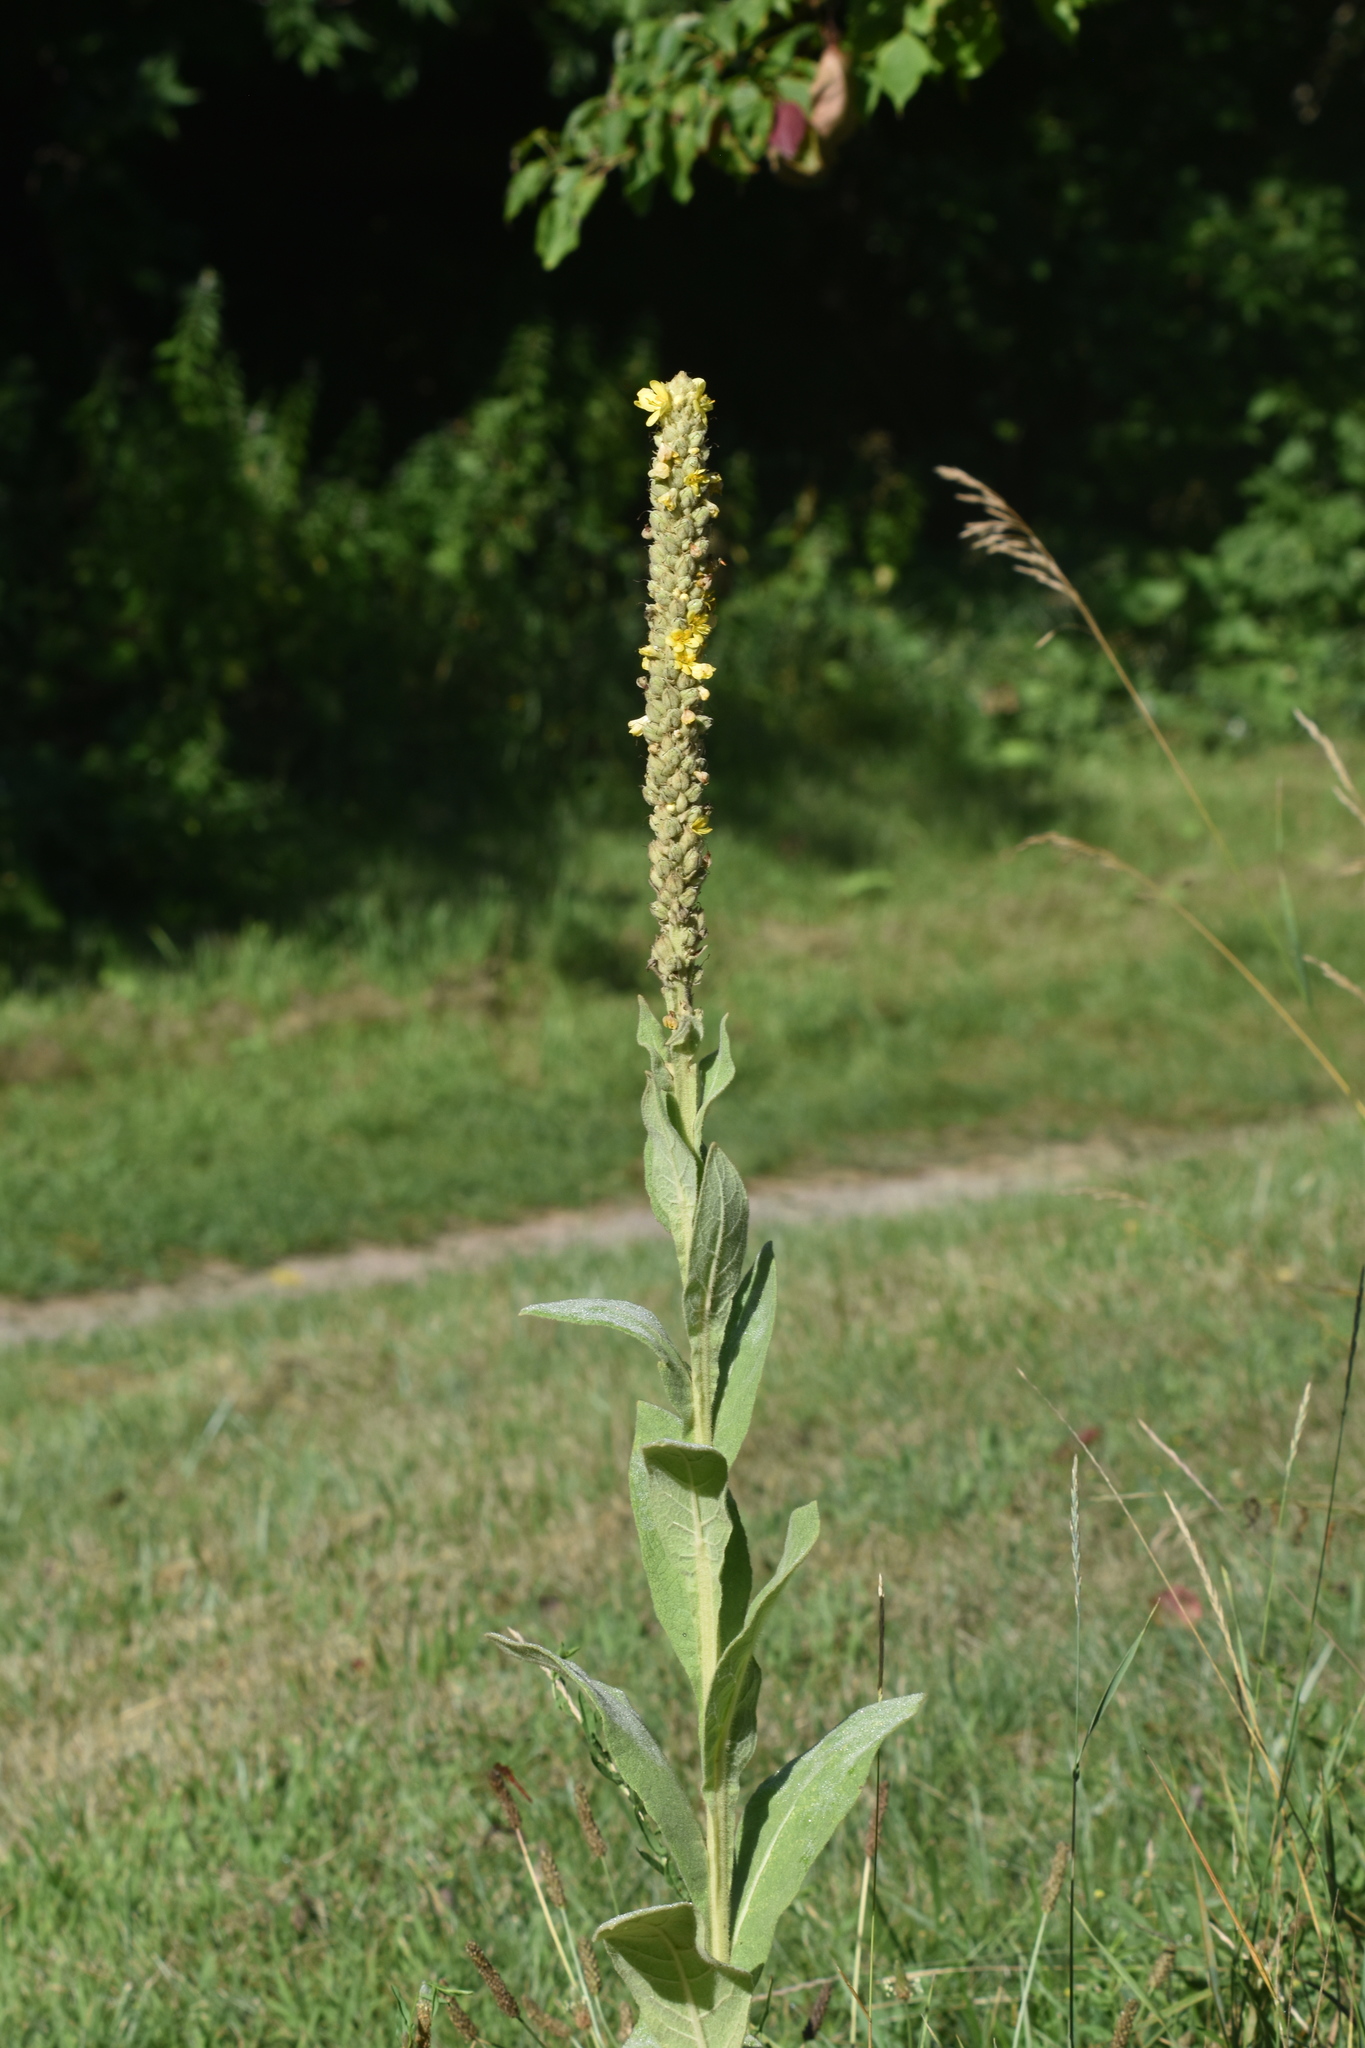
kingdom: Plantae
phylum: Tracheophyta
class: Magnoliopsida
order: Lamiales
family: Scrophulariaceae
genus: Verbascum
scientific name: Verbascum thapsus
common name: Common mullein
